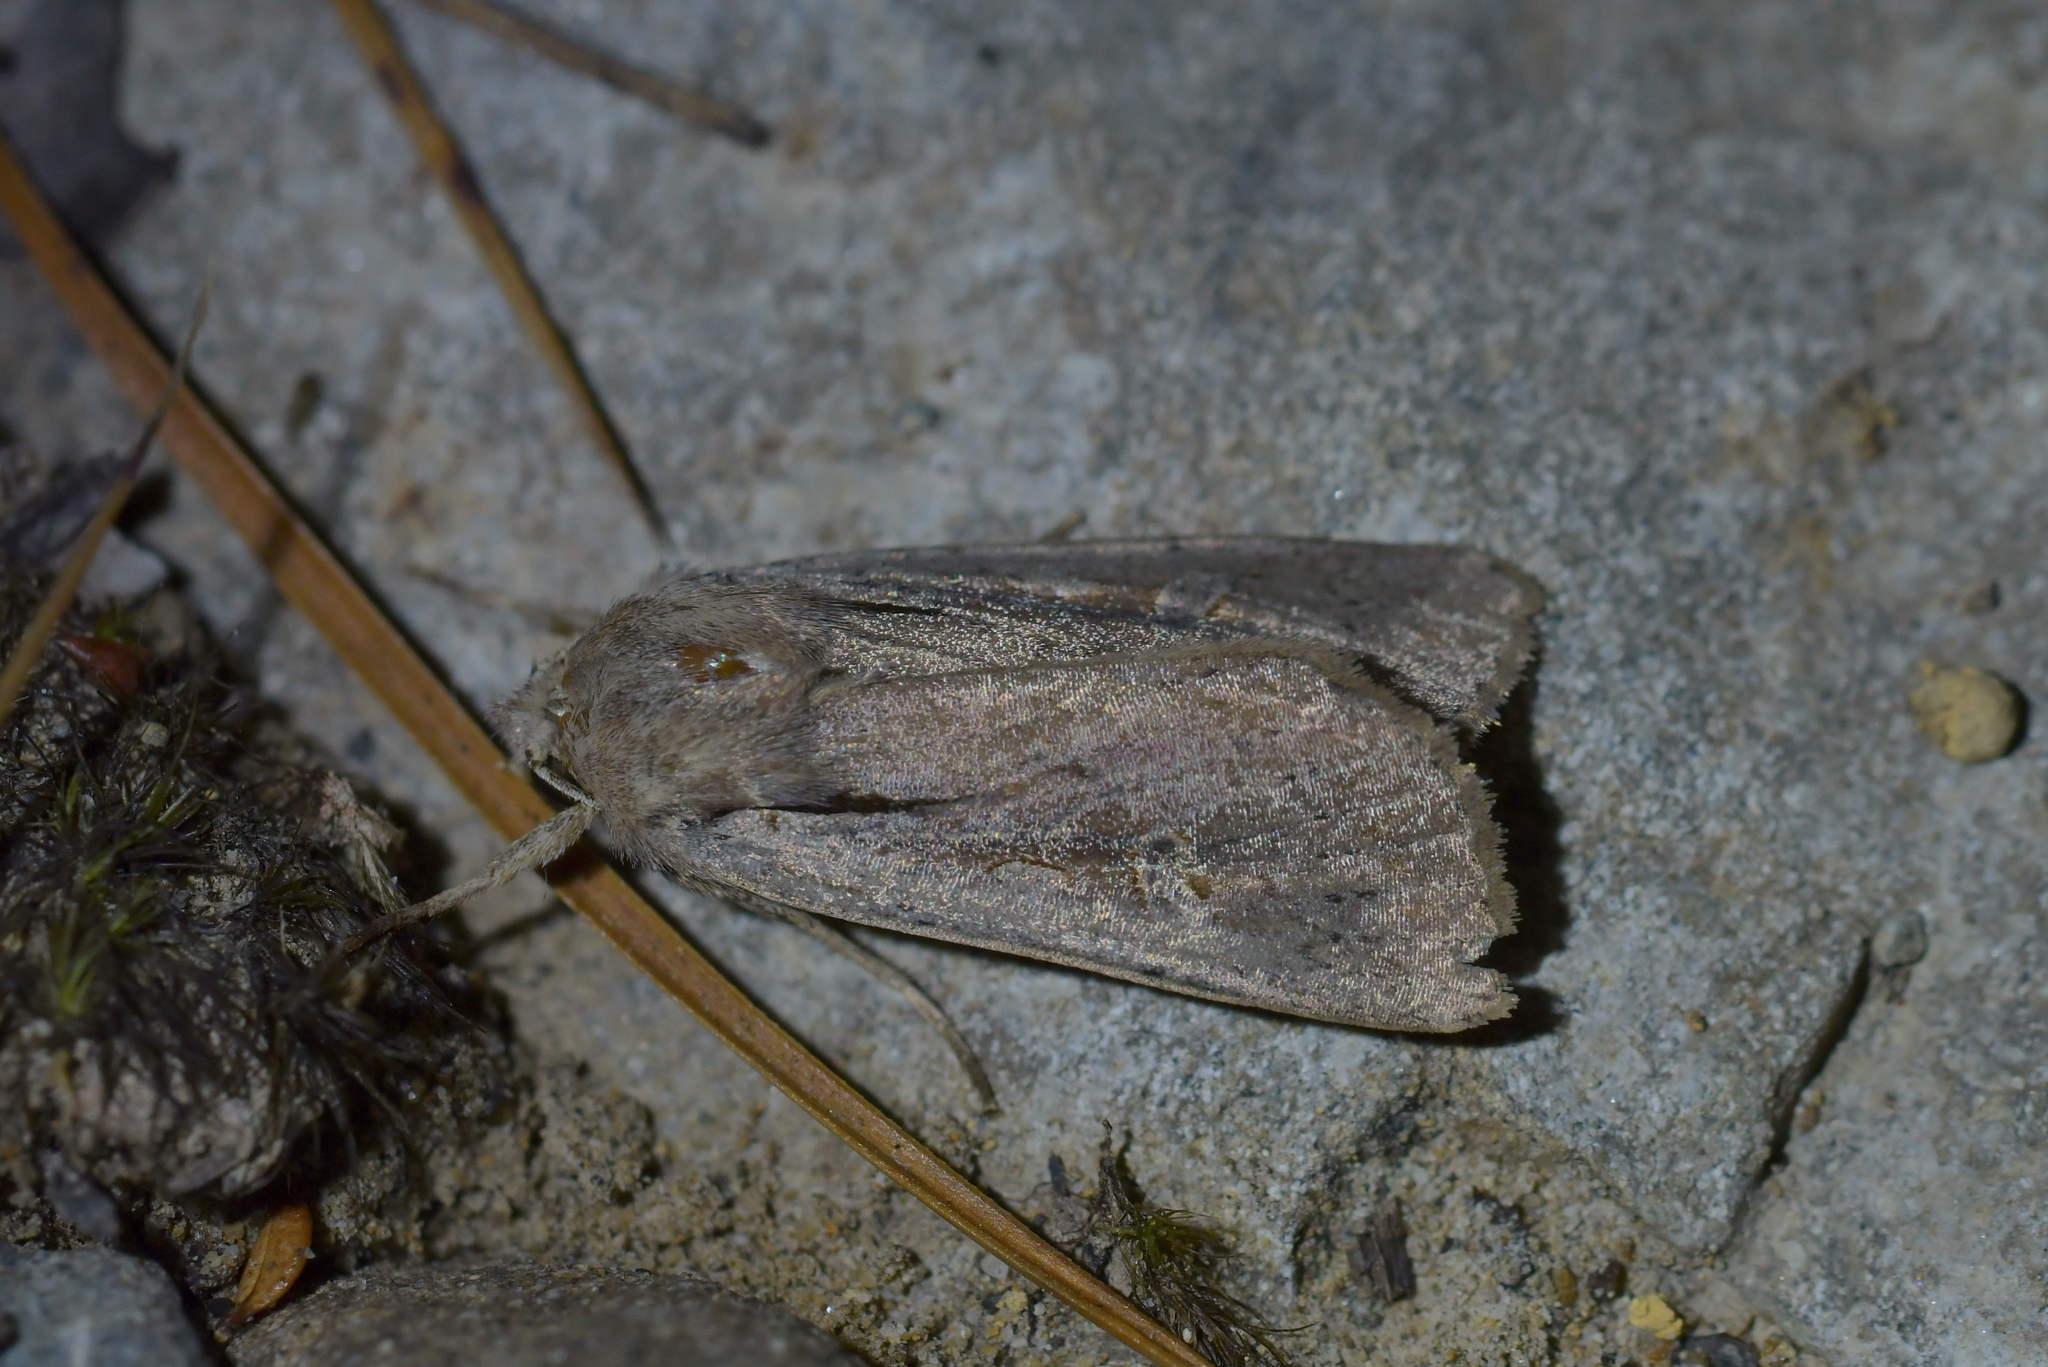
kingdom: Animalia
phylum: Arthropoda
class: Insecta
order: Lepidoptera
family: Noctuidae
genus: Ichneutica
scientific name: Ichneutica atristriga
